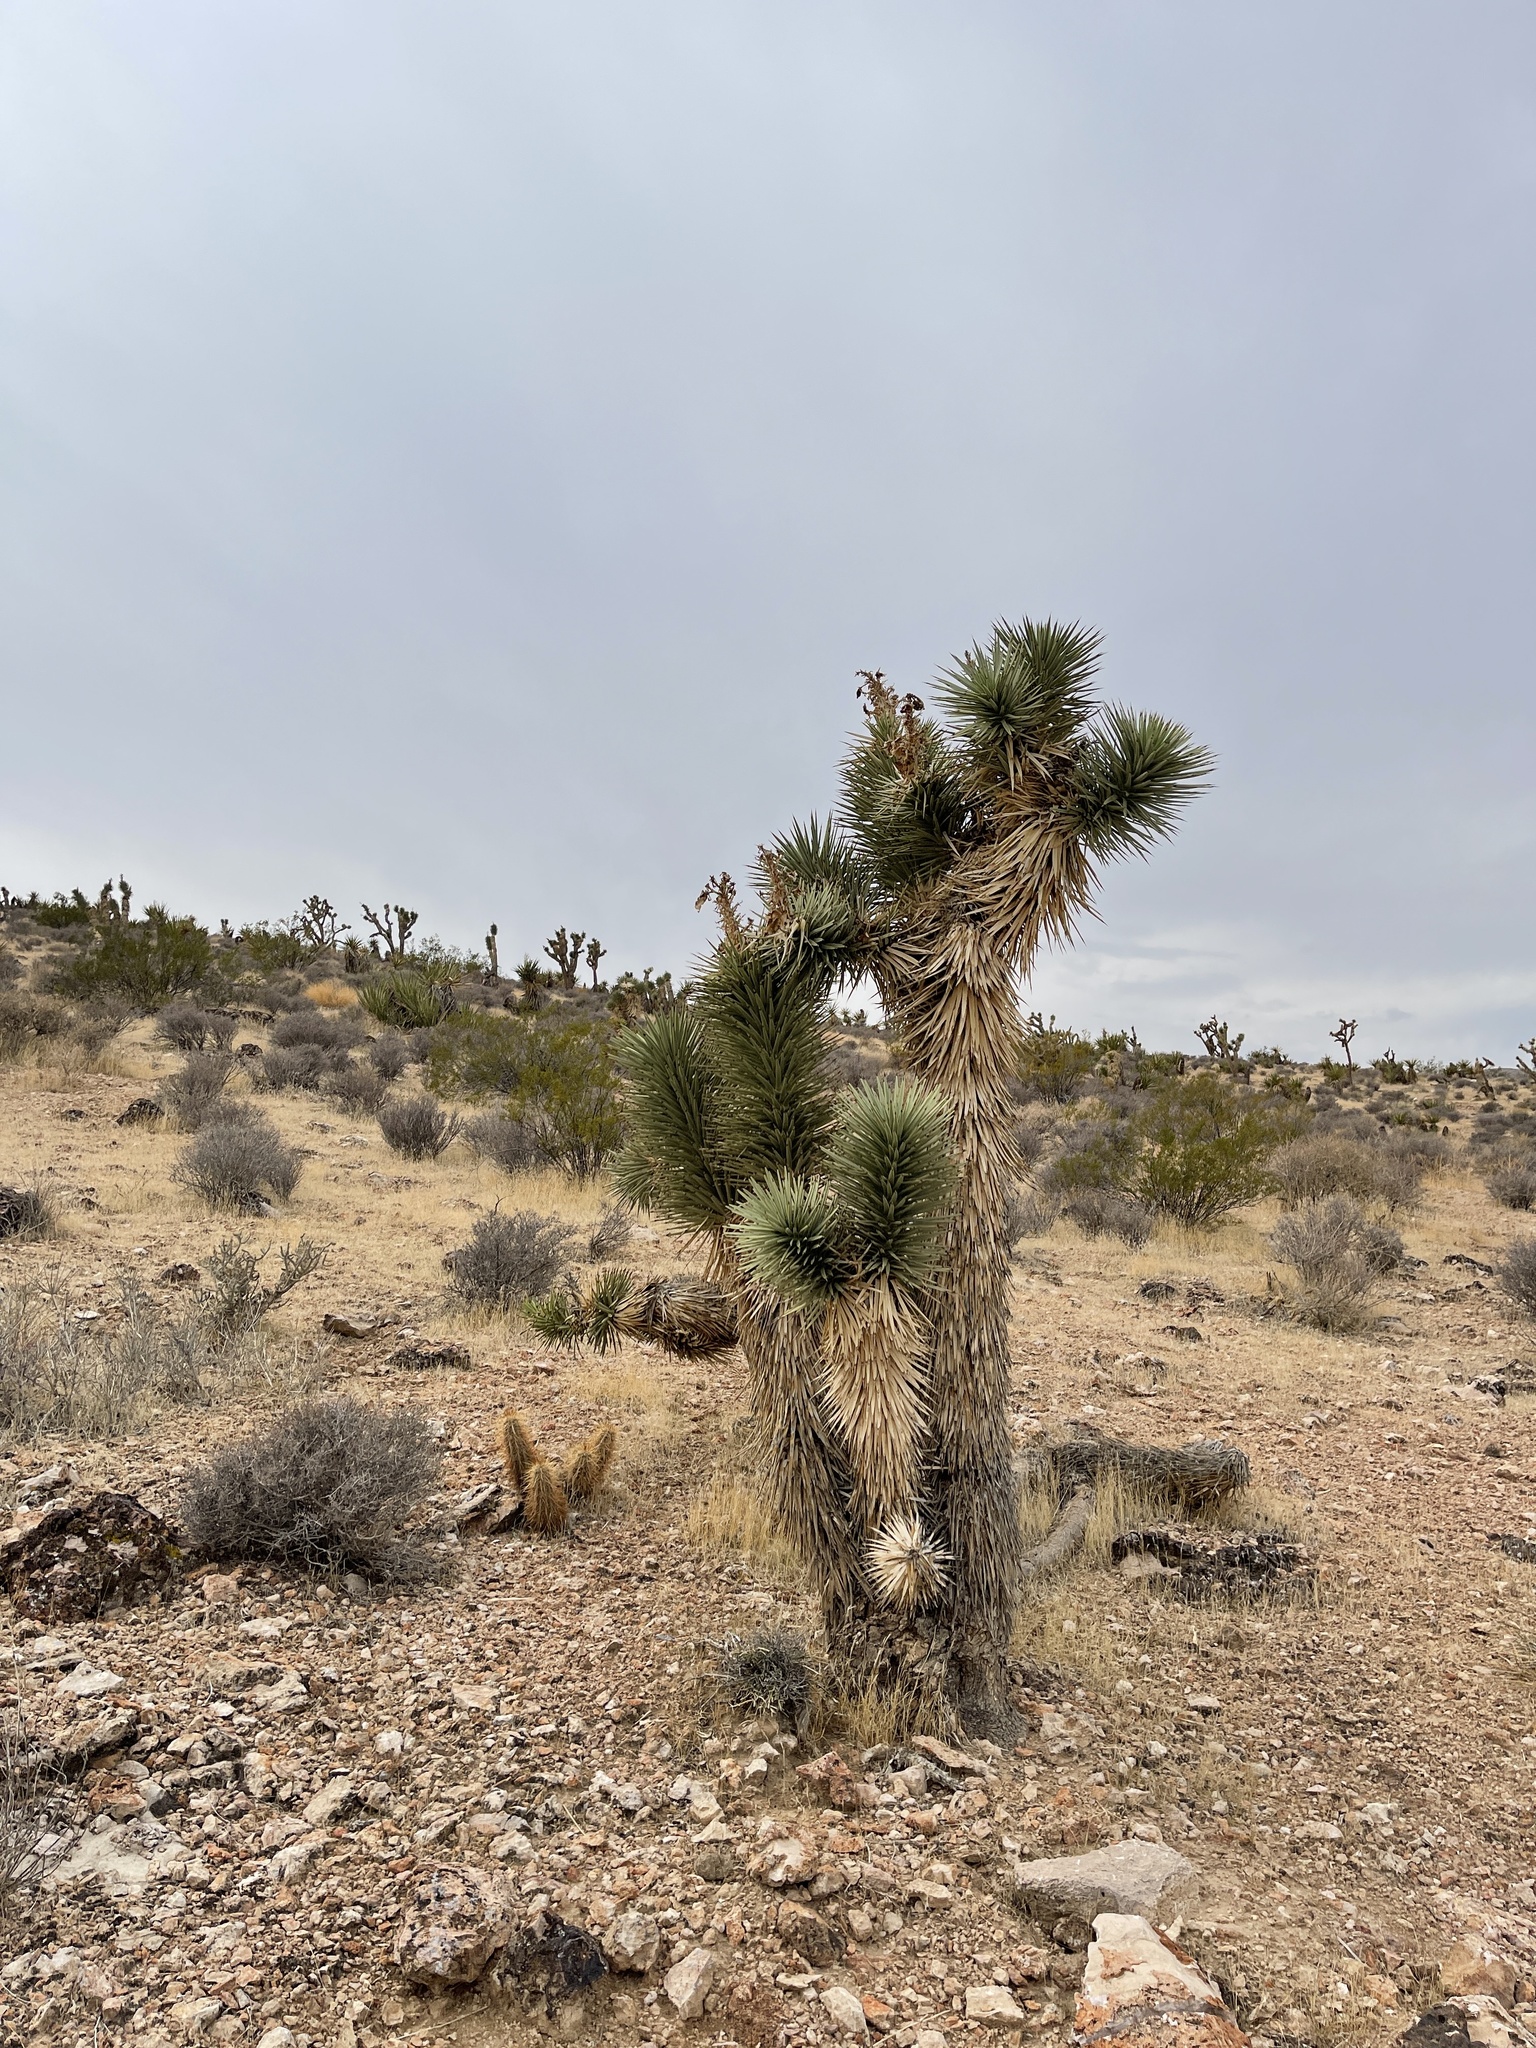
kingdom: Plantae
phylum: Tracheophyta
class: Liliopsida
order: Asparagales
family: Asparagaceae
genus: Yucca
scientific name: Yucca brevifolia
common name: Joshua tree
